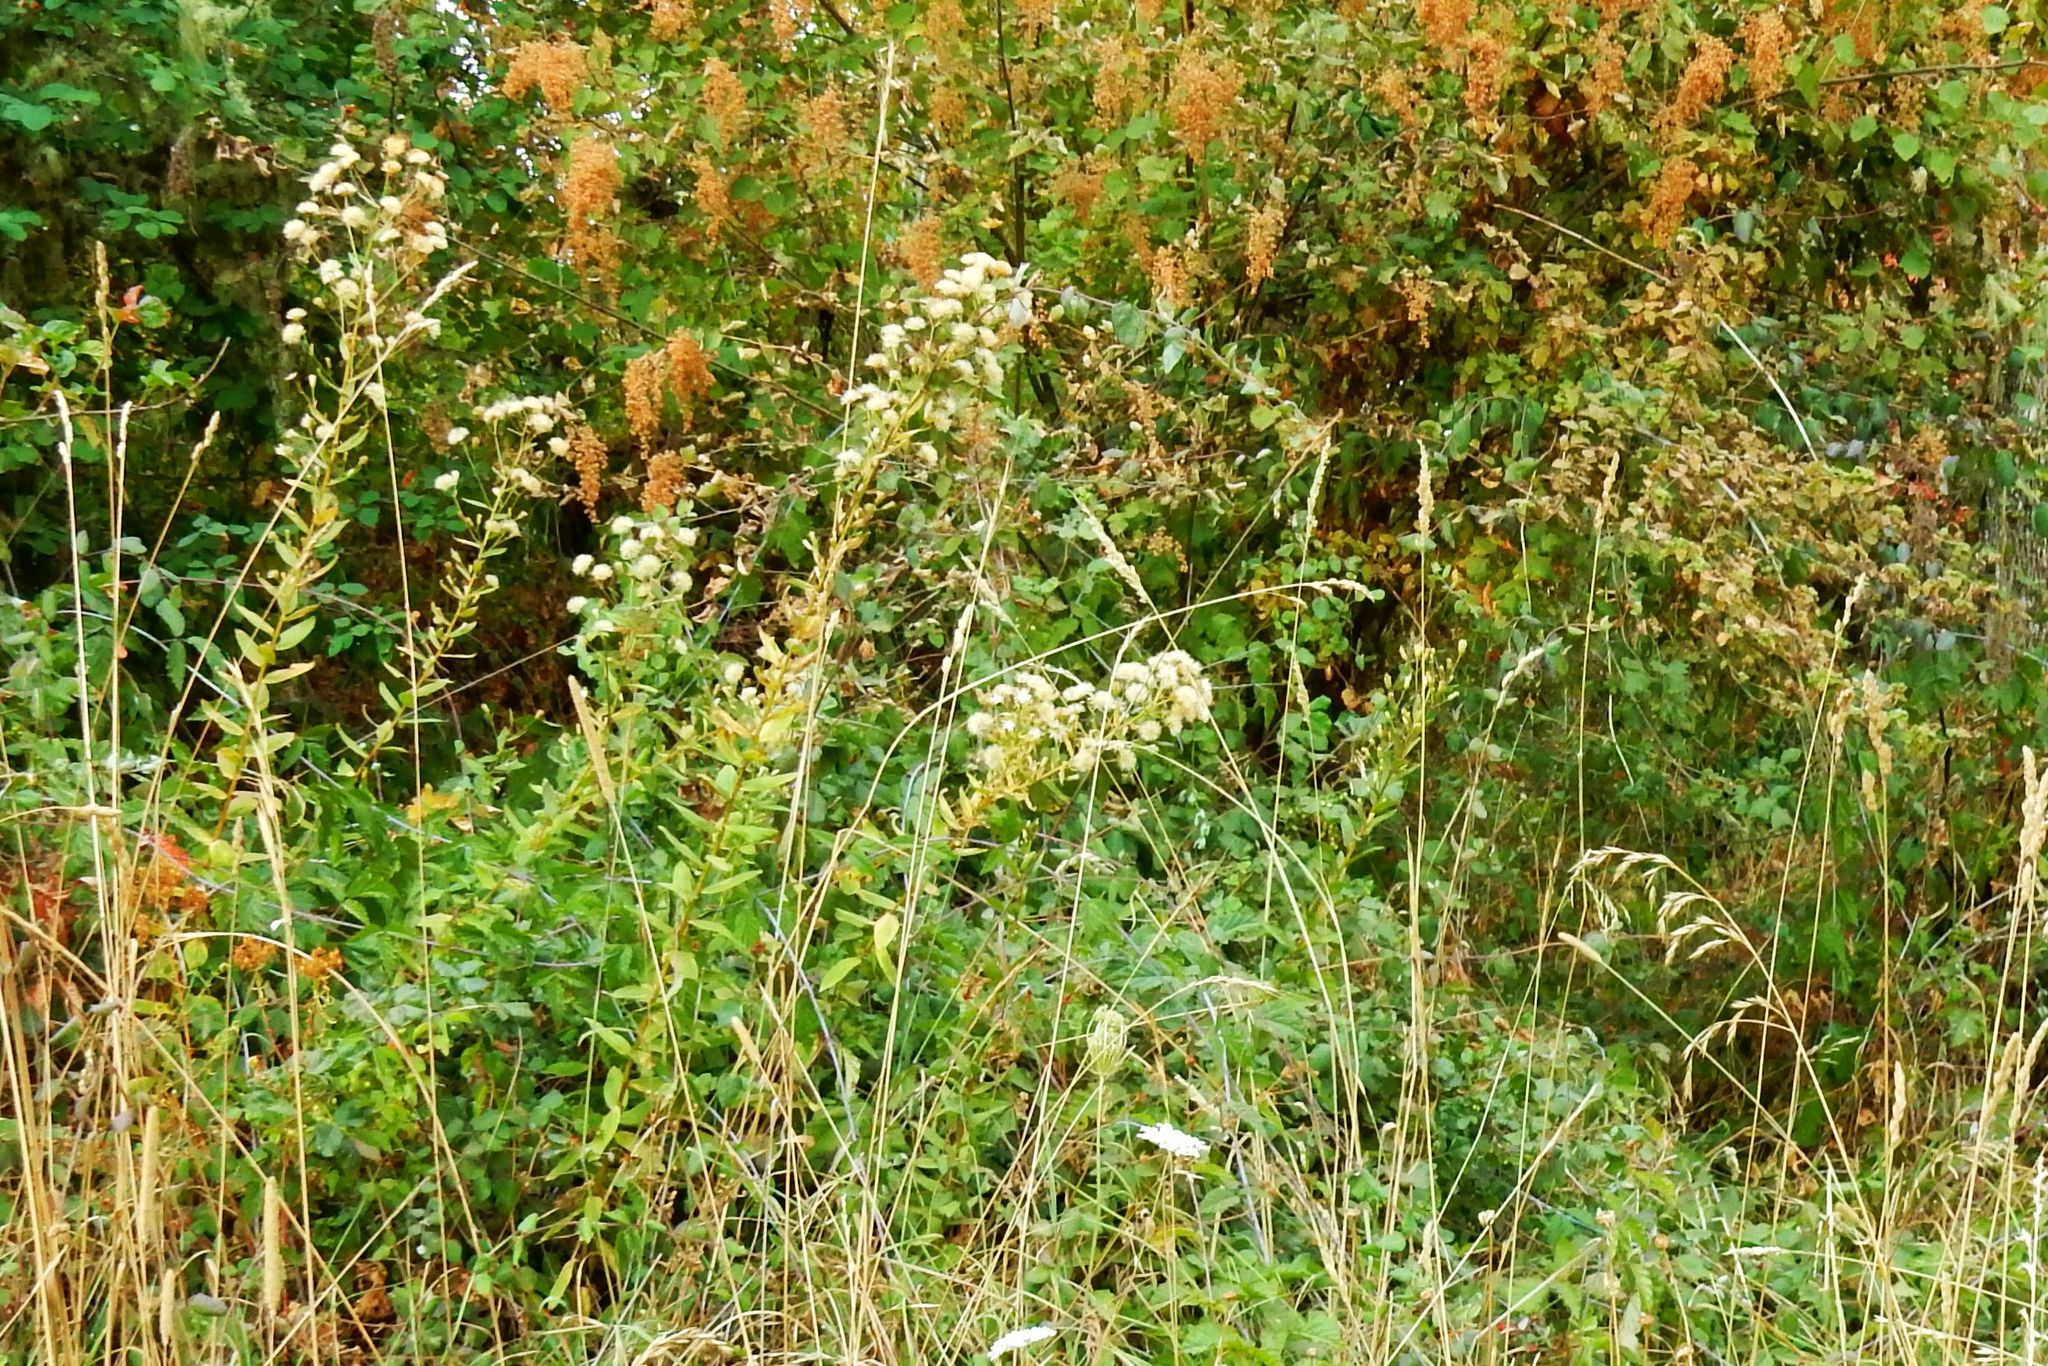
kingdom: Plantae
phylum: Tracheophyta
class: Magnoliopsida
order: Asterales
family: Asteraceae
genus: Eucephalus
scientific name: Eucephalus vialis
